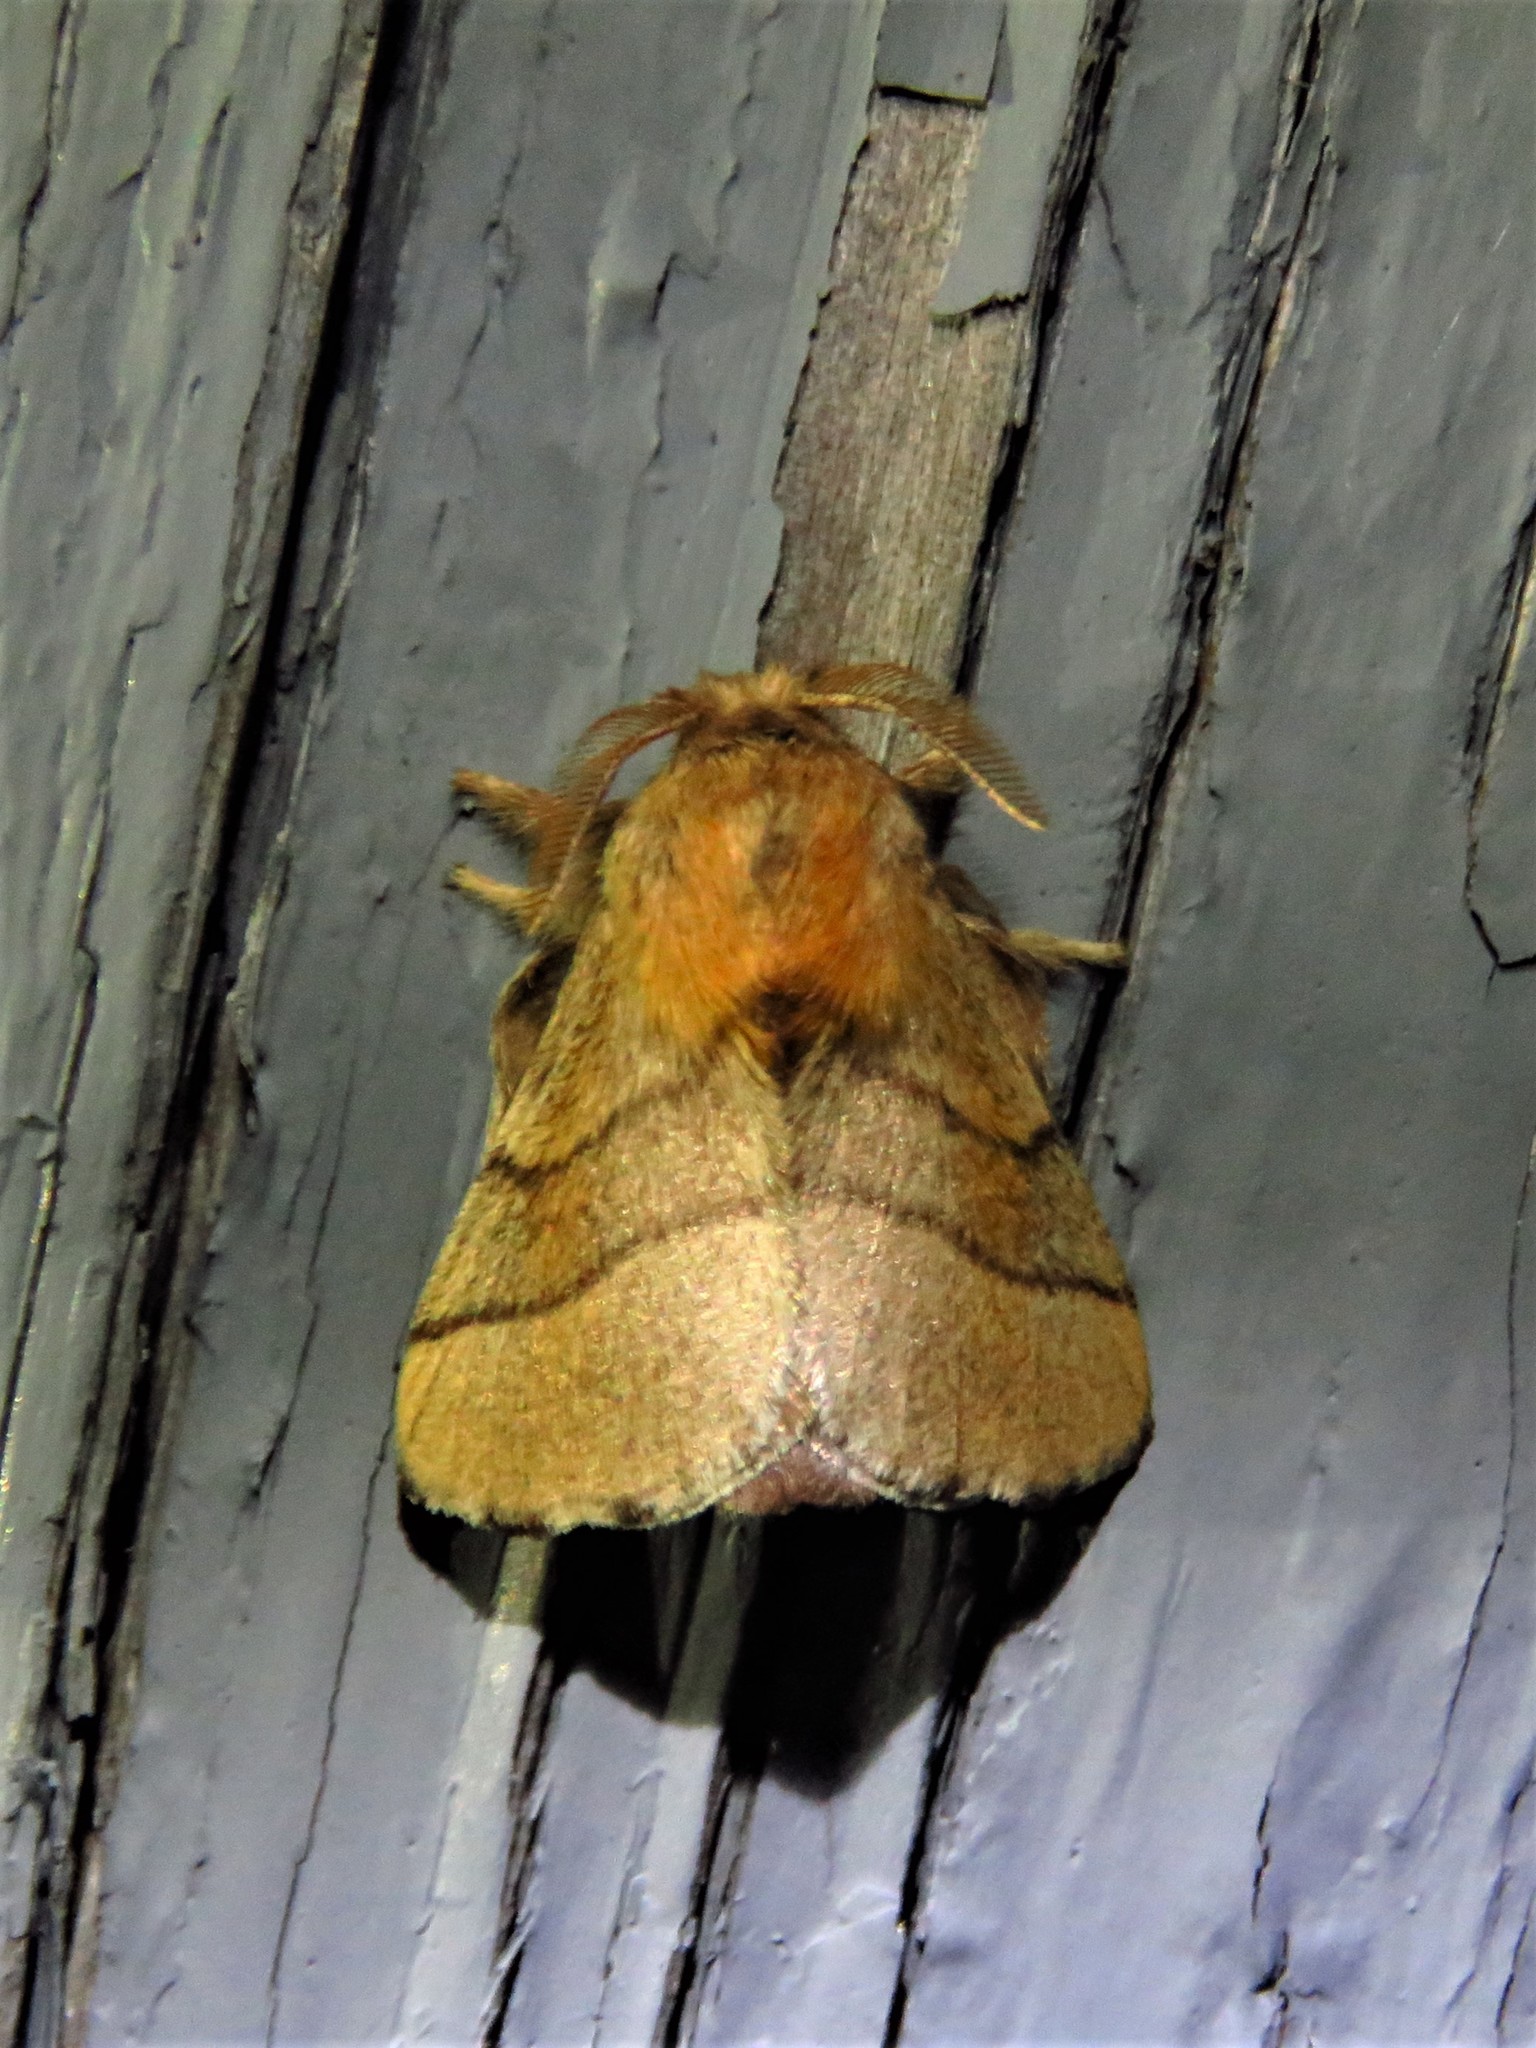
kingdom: Animalia
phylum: Arthropoda
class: Insecta
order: Lepidoptera
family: Lasiocampidae
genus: Malacosoma
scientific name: Malacosoma disstria
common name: Forest tent caterpillar
